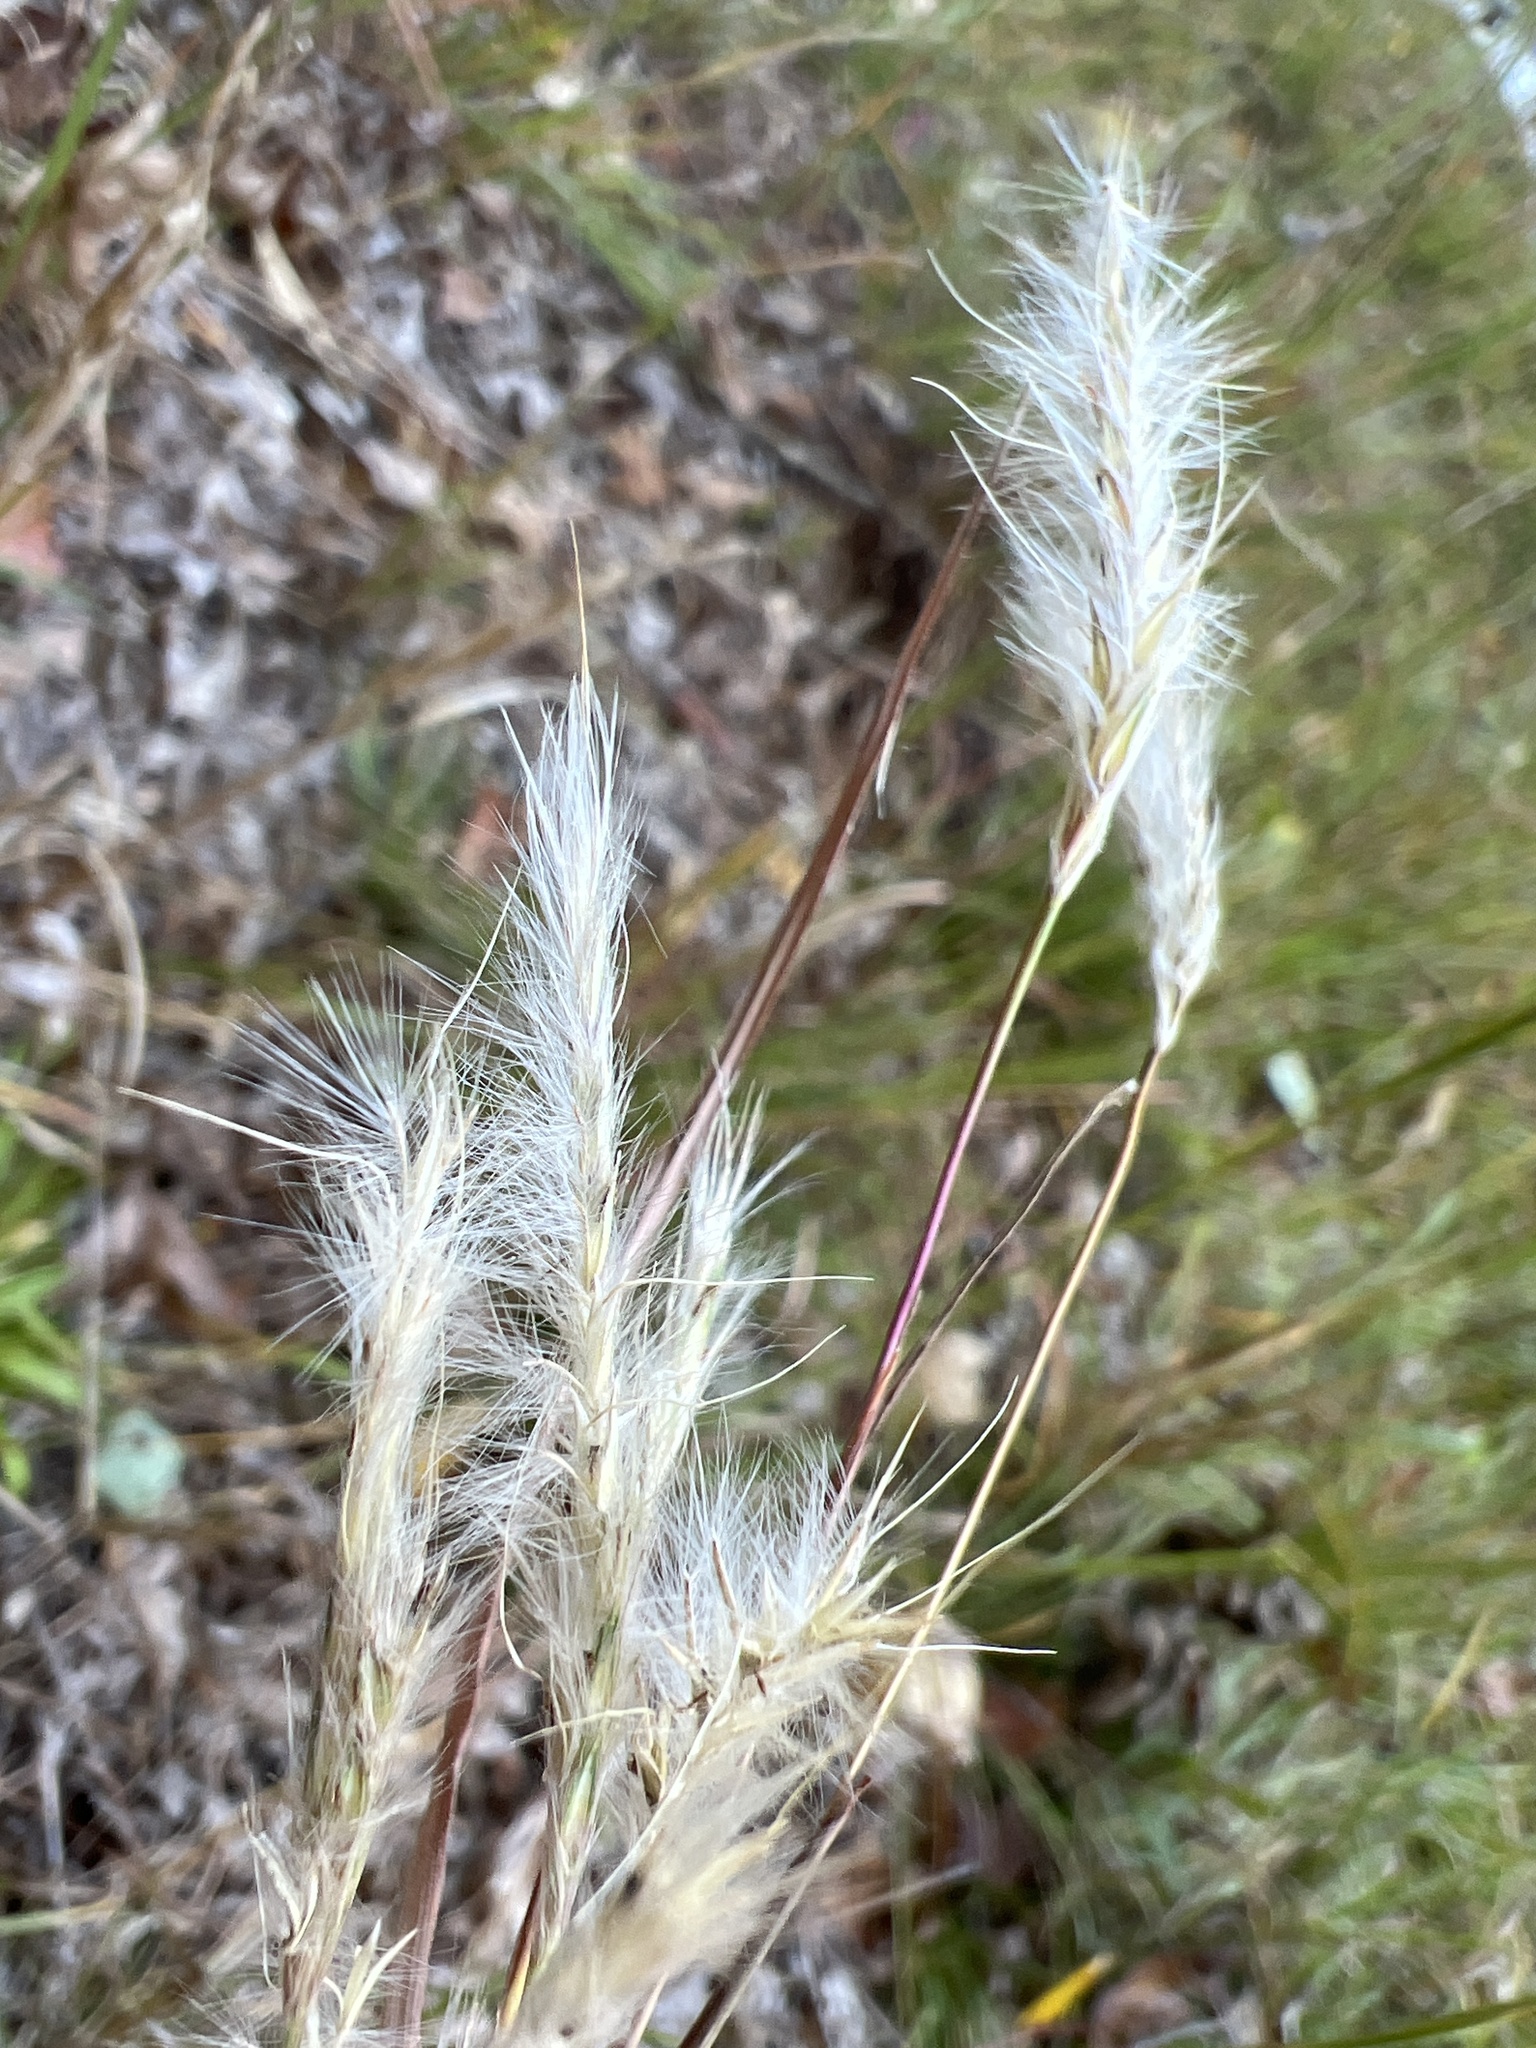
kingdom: Plantae
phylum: Tracheophyta
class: Liliopsida
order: Poales
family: Poaceae
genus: Andropogon
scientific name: Andropogon ternarius
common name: Split bluestem
